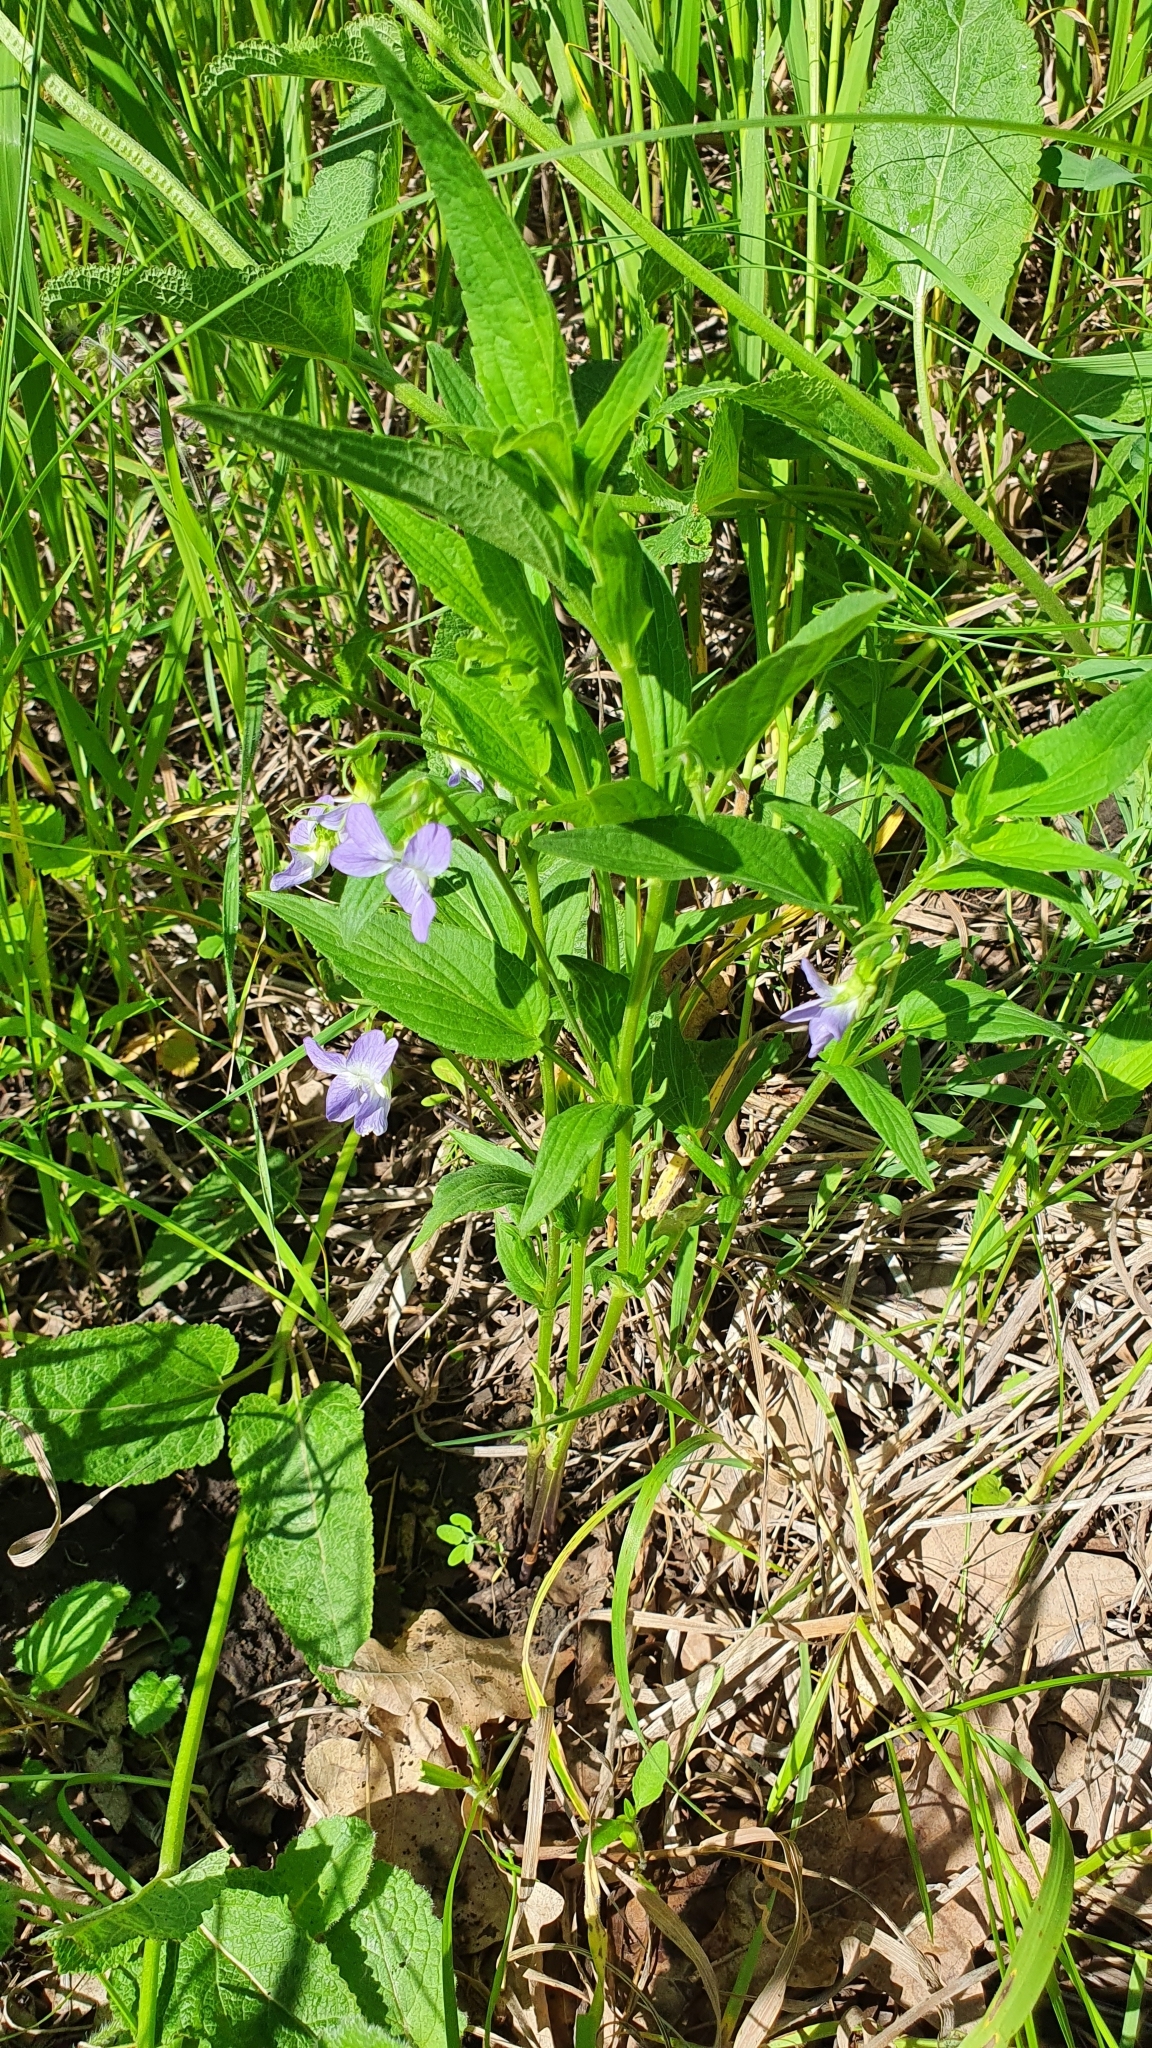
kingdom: Plantae
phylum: Tracheophyta
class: Magnoliopsida
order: Malpighiales
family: Violaceae
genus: Viola
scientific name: Viola elatior
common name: Tall violet
